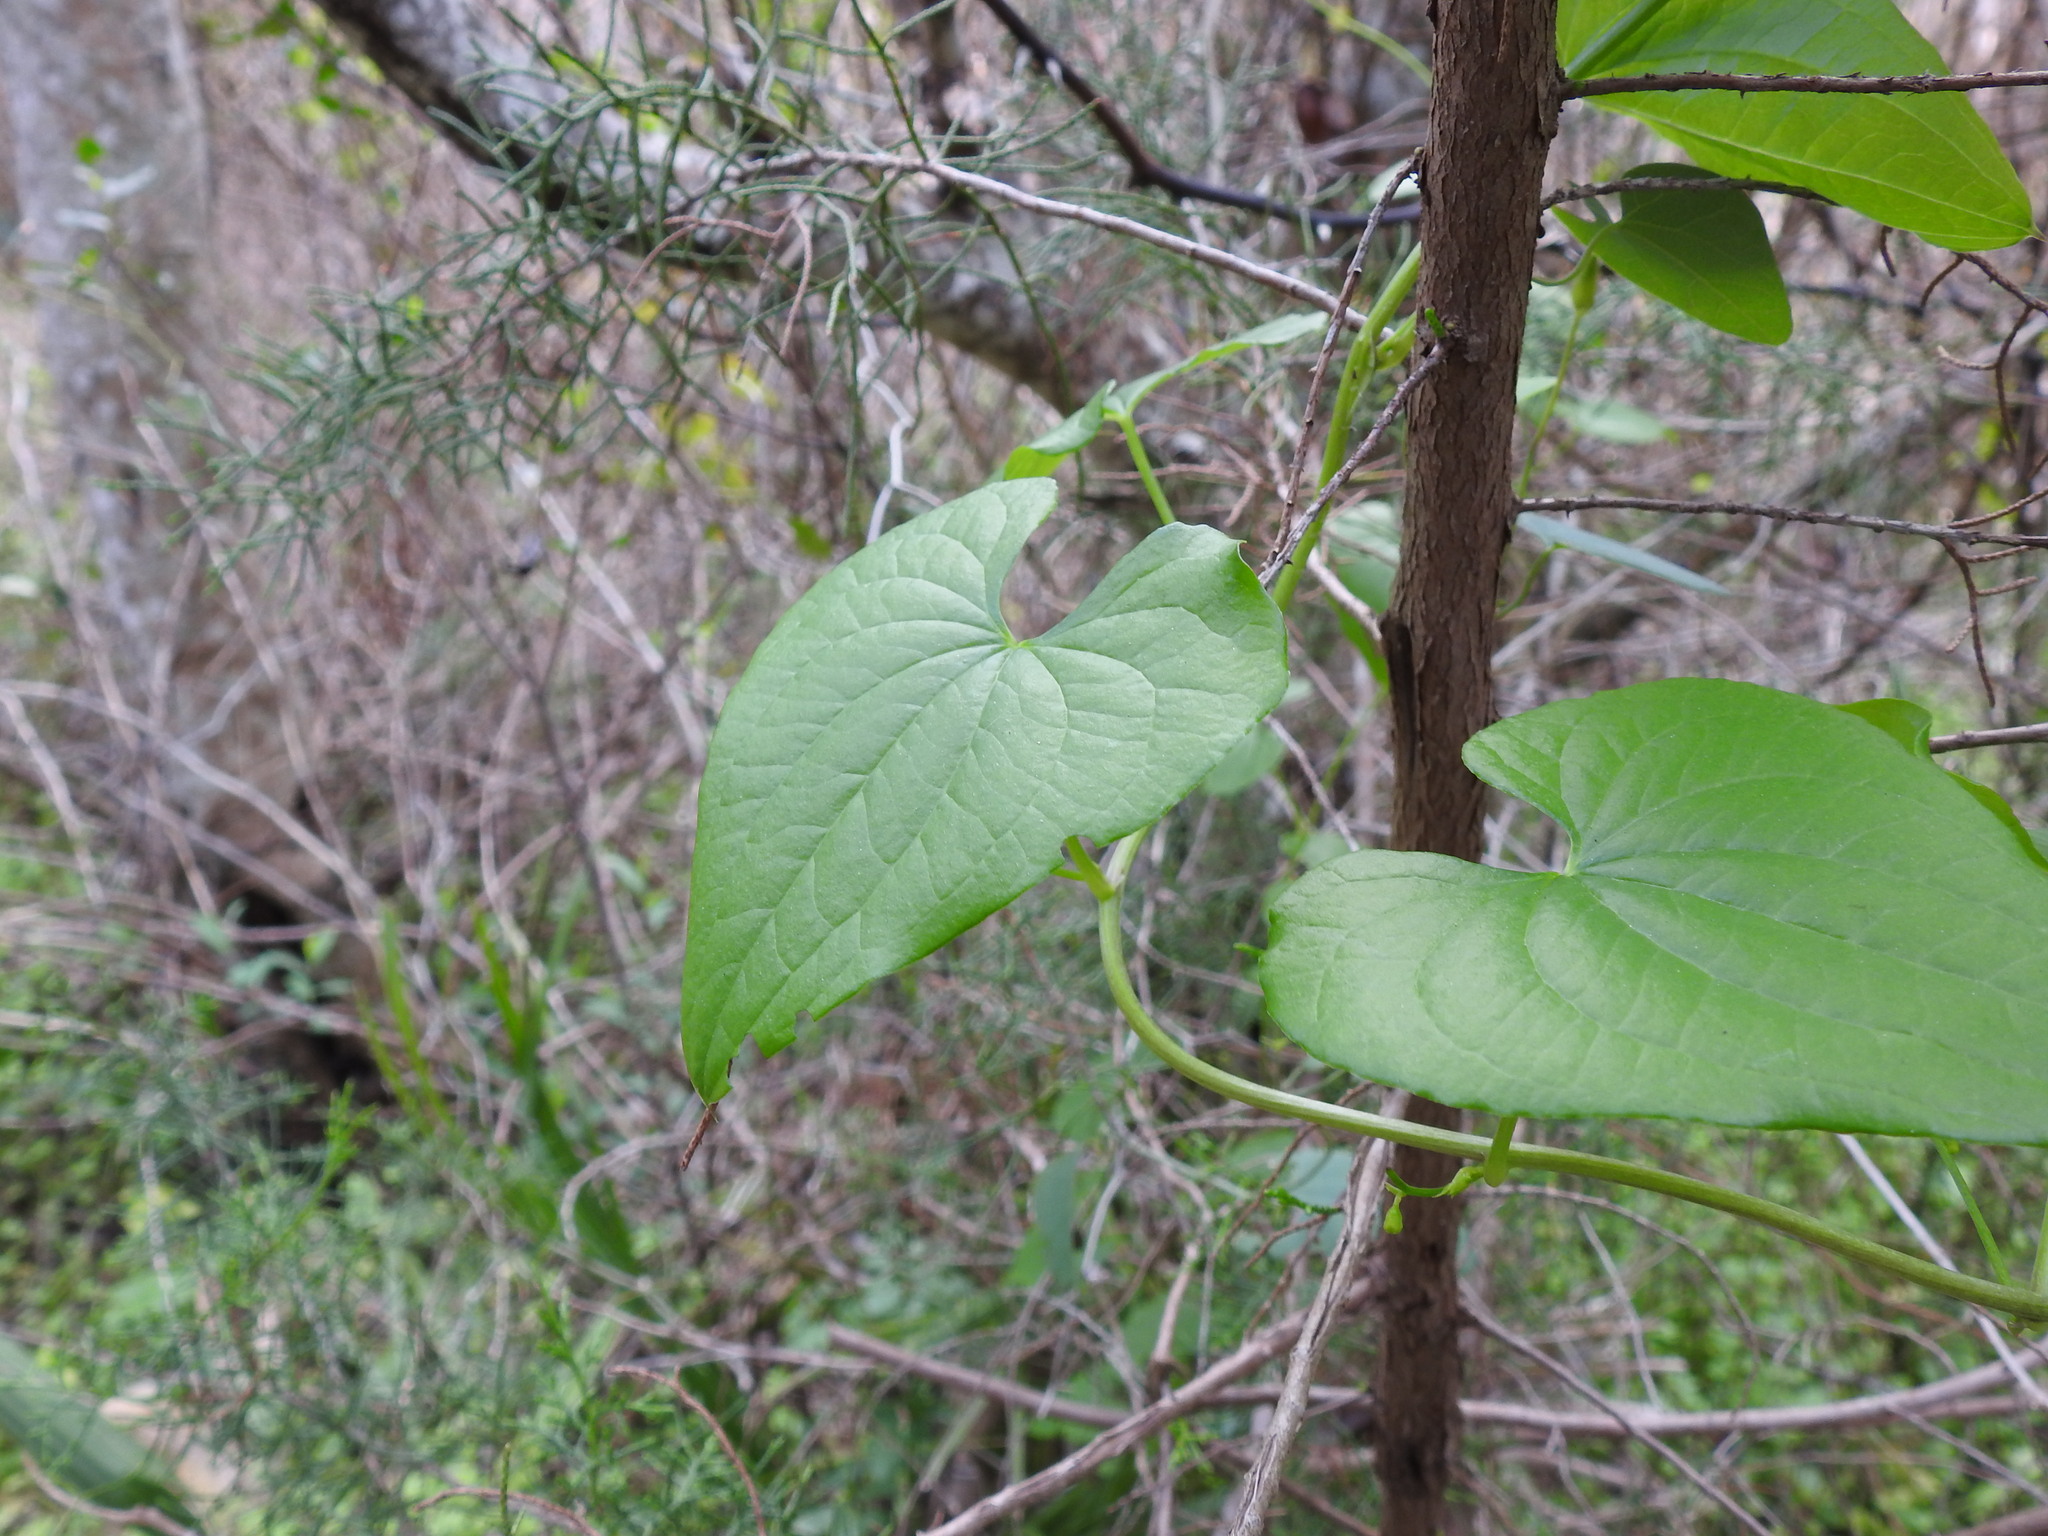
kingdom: Plantae
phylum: Tracheophyta
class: Liliopsida
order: Dioscoreales
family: Dioscoreaceae
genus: Dioscorea
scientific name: Dioscorea communis
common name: Black-bindweed
